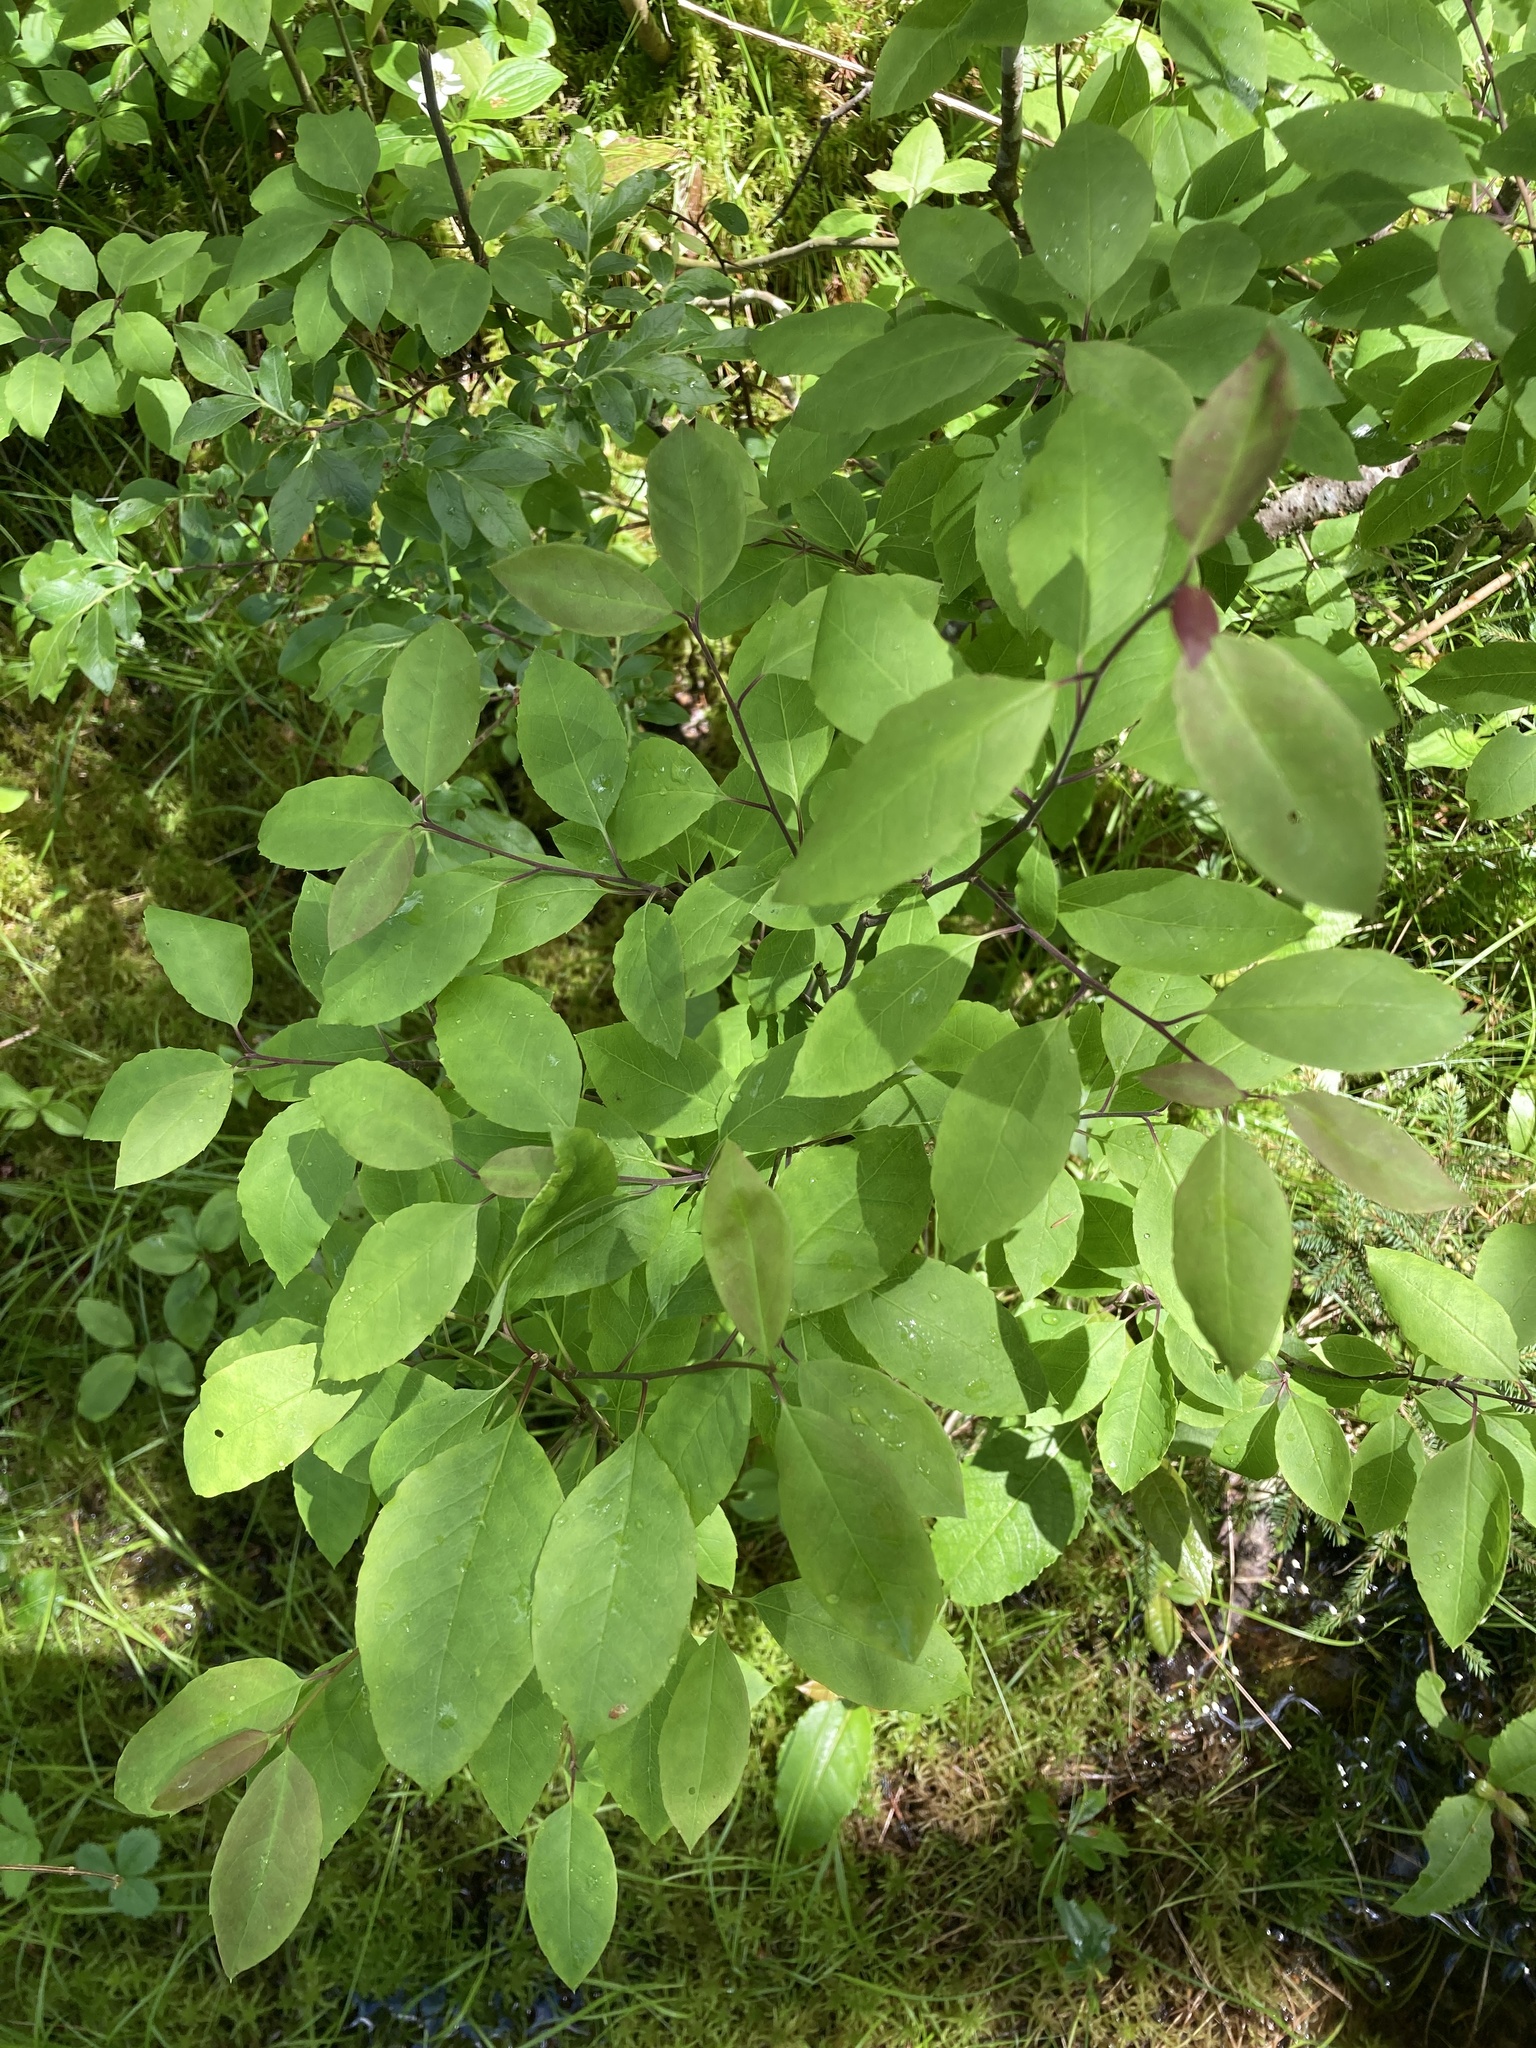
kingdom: Plantae
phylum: Tracheophyta
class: Magnoliopsida
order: Aquifoliales
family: Aquifoliaceae
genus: Ilex
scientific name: Ilex mucronata
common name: Catberry
